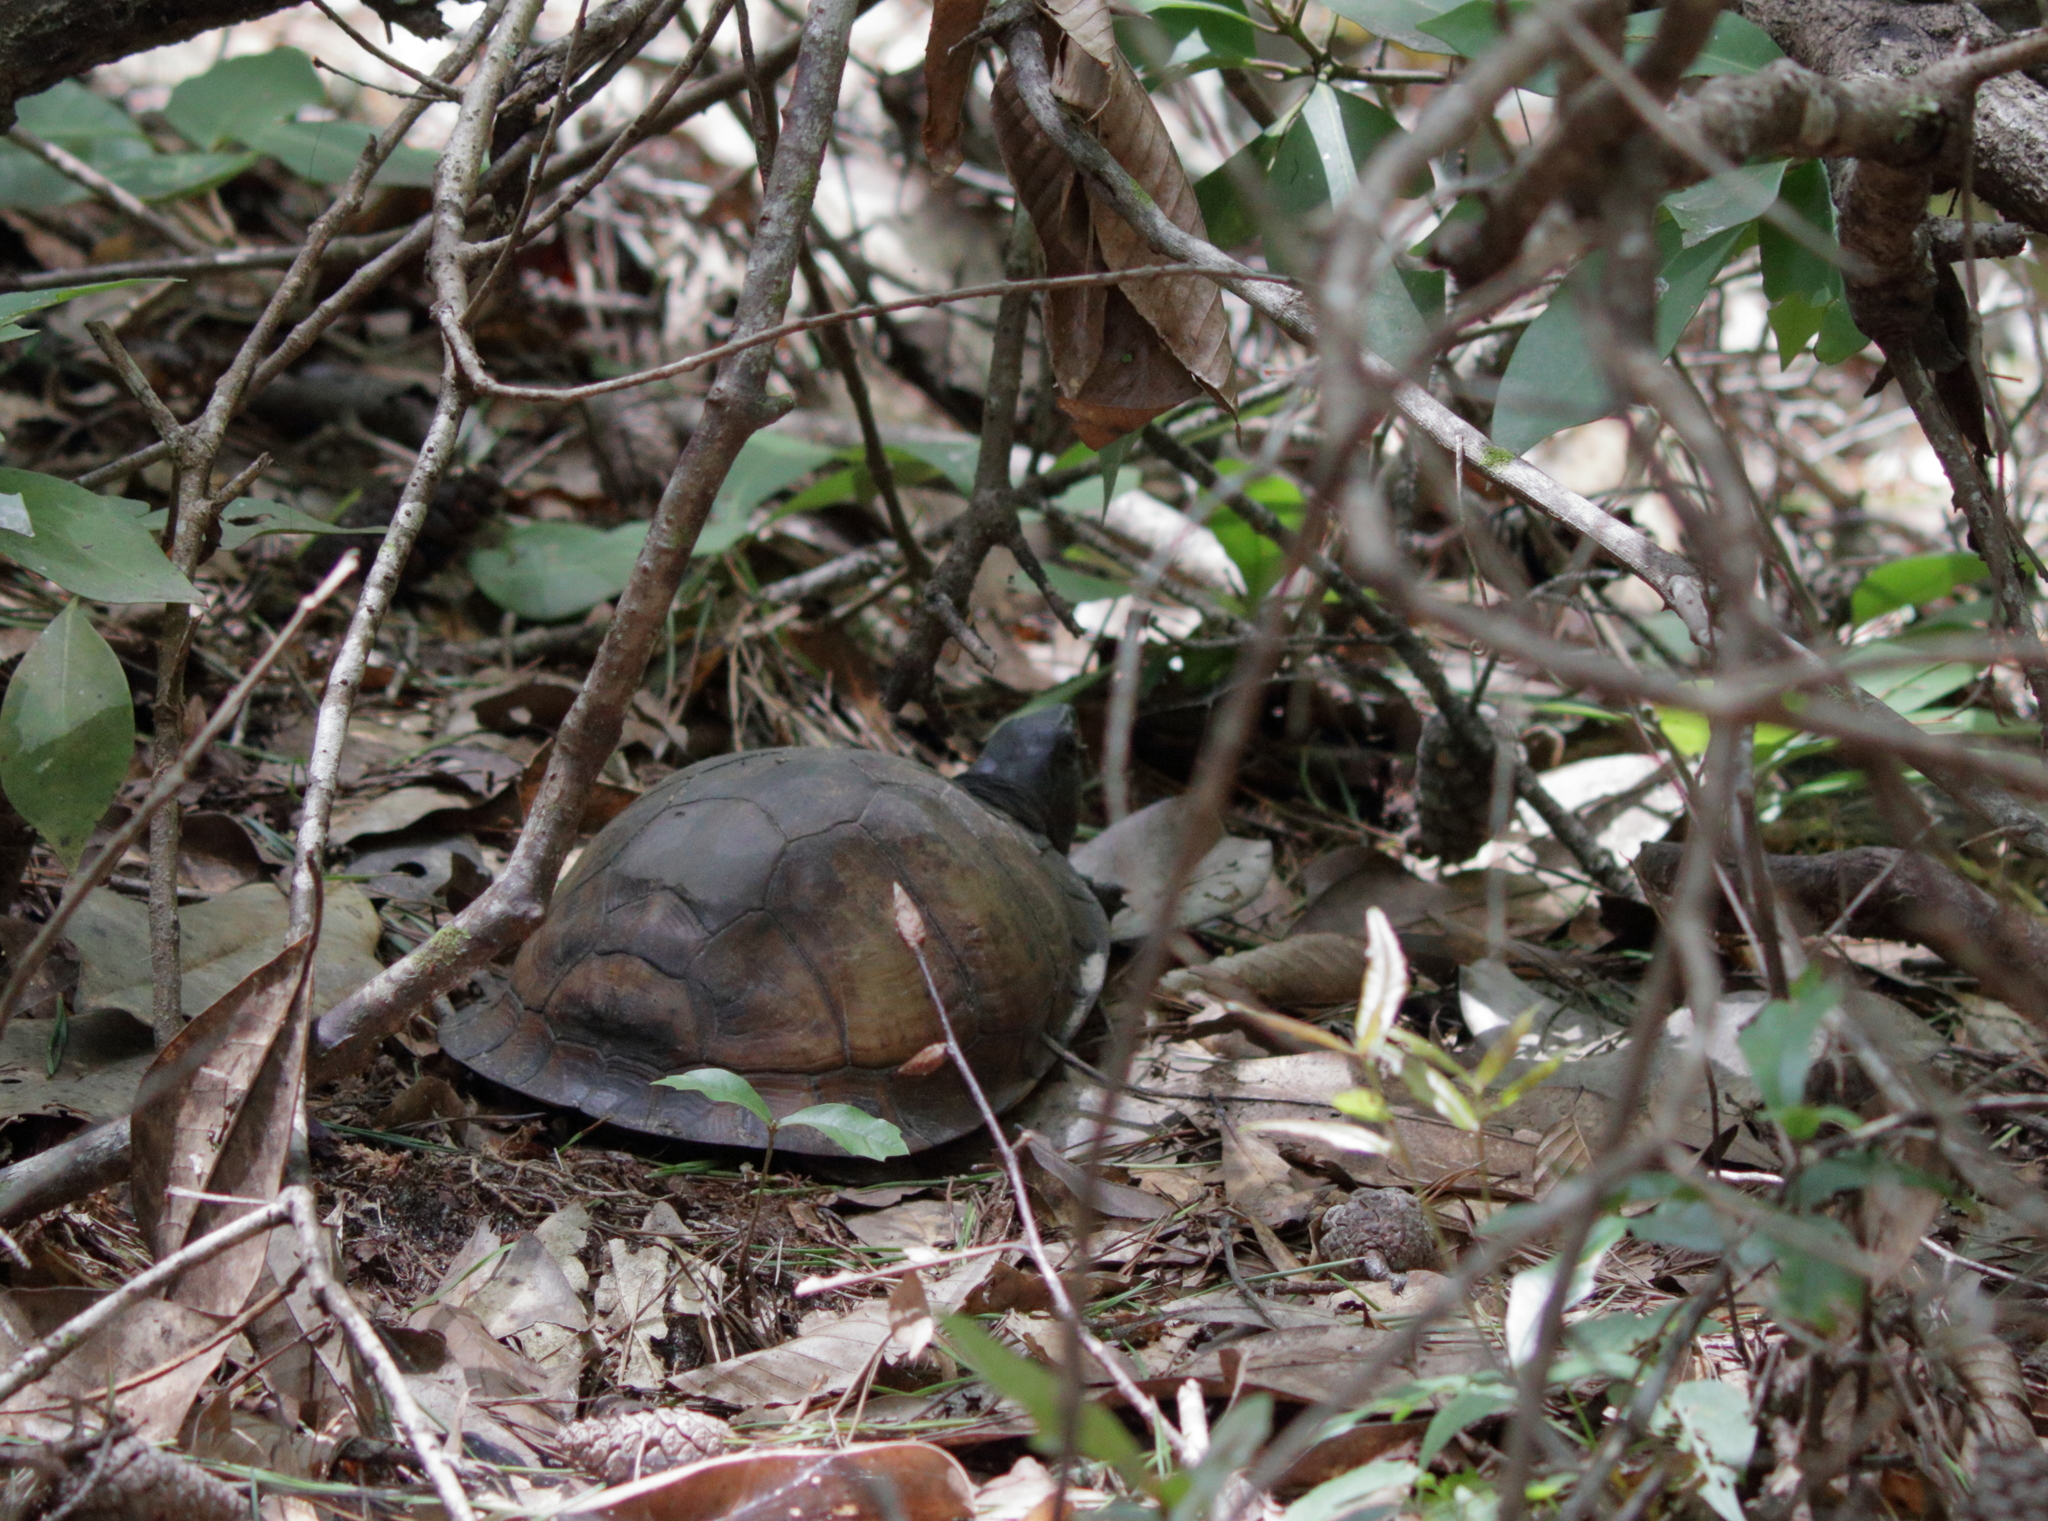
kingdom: Animalia
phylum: Chordata
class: Testudines
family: Emydidae
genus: Terrapene
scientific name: Terrapene carolina
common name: Common box turtle
